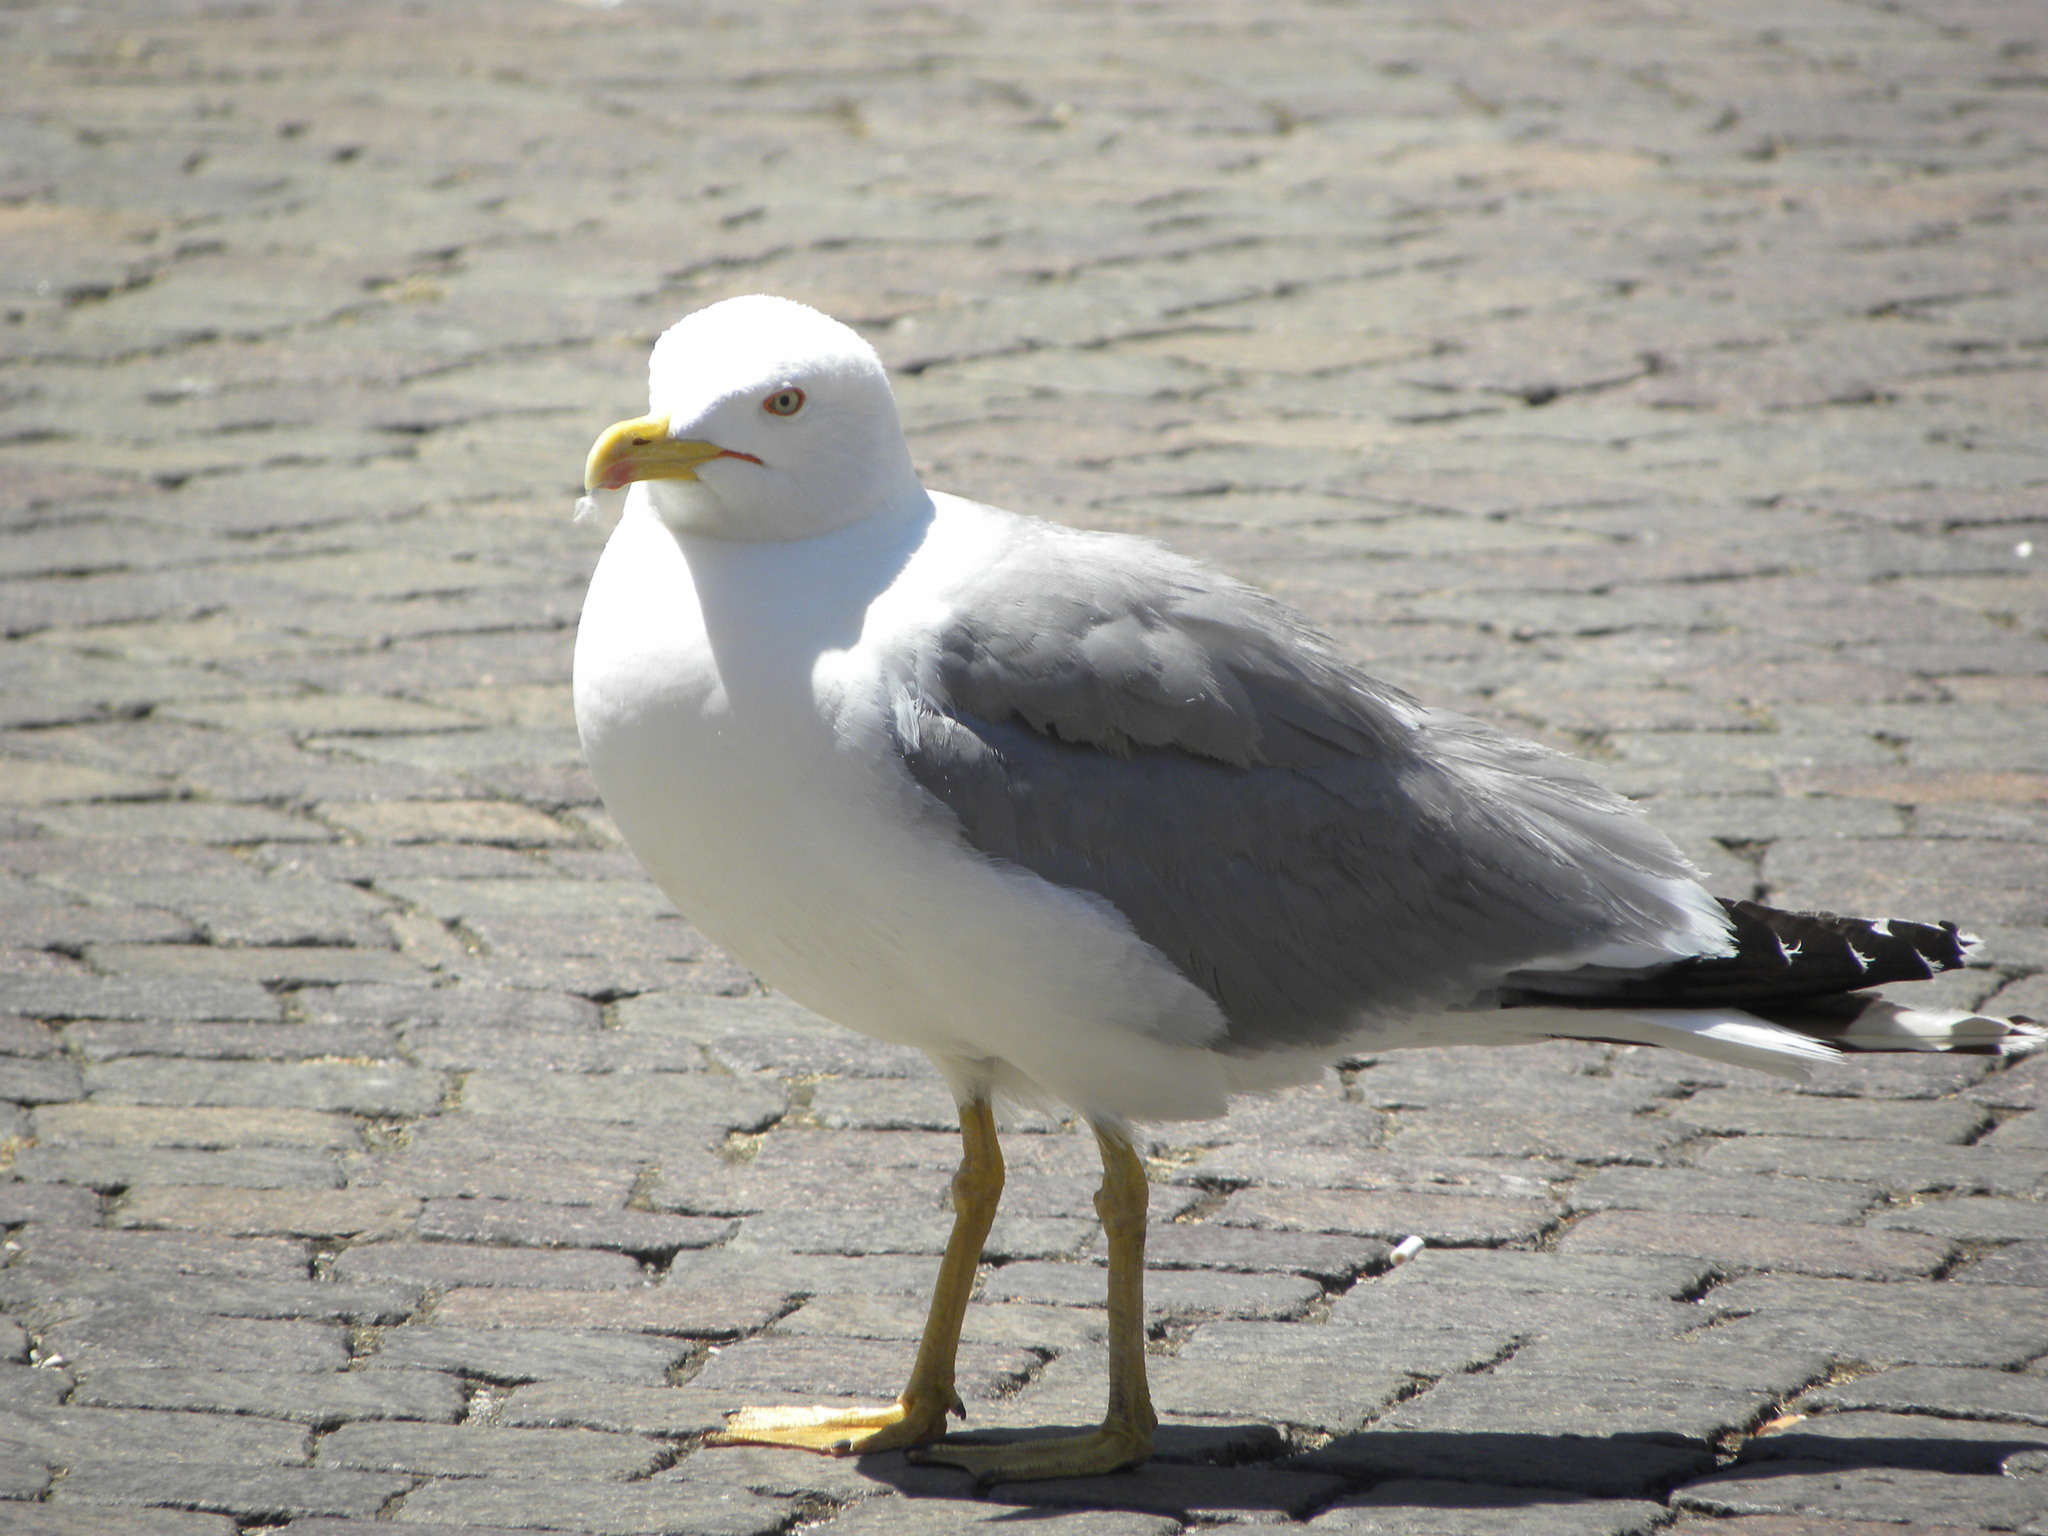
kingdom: Animalia
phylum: Chordata
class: Aves
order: Charadriiformes
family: Laridae
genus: Larus
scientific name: Larus michahellis
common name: Yellow-legged gull
